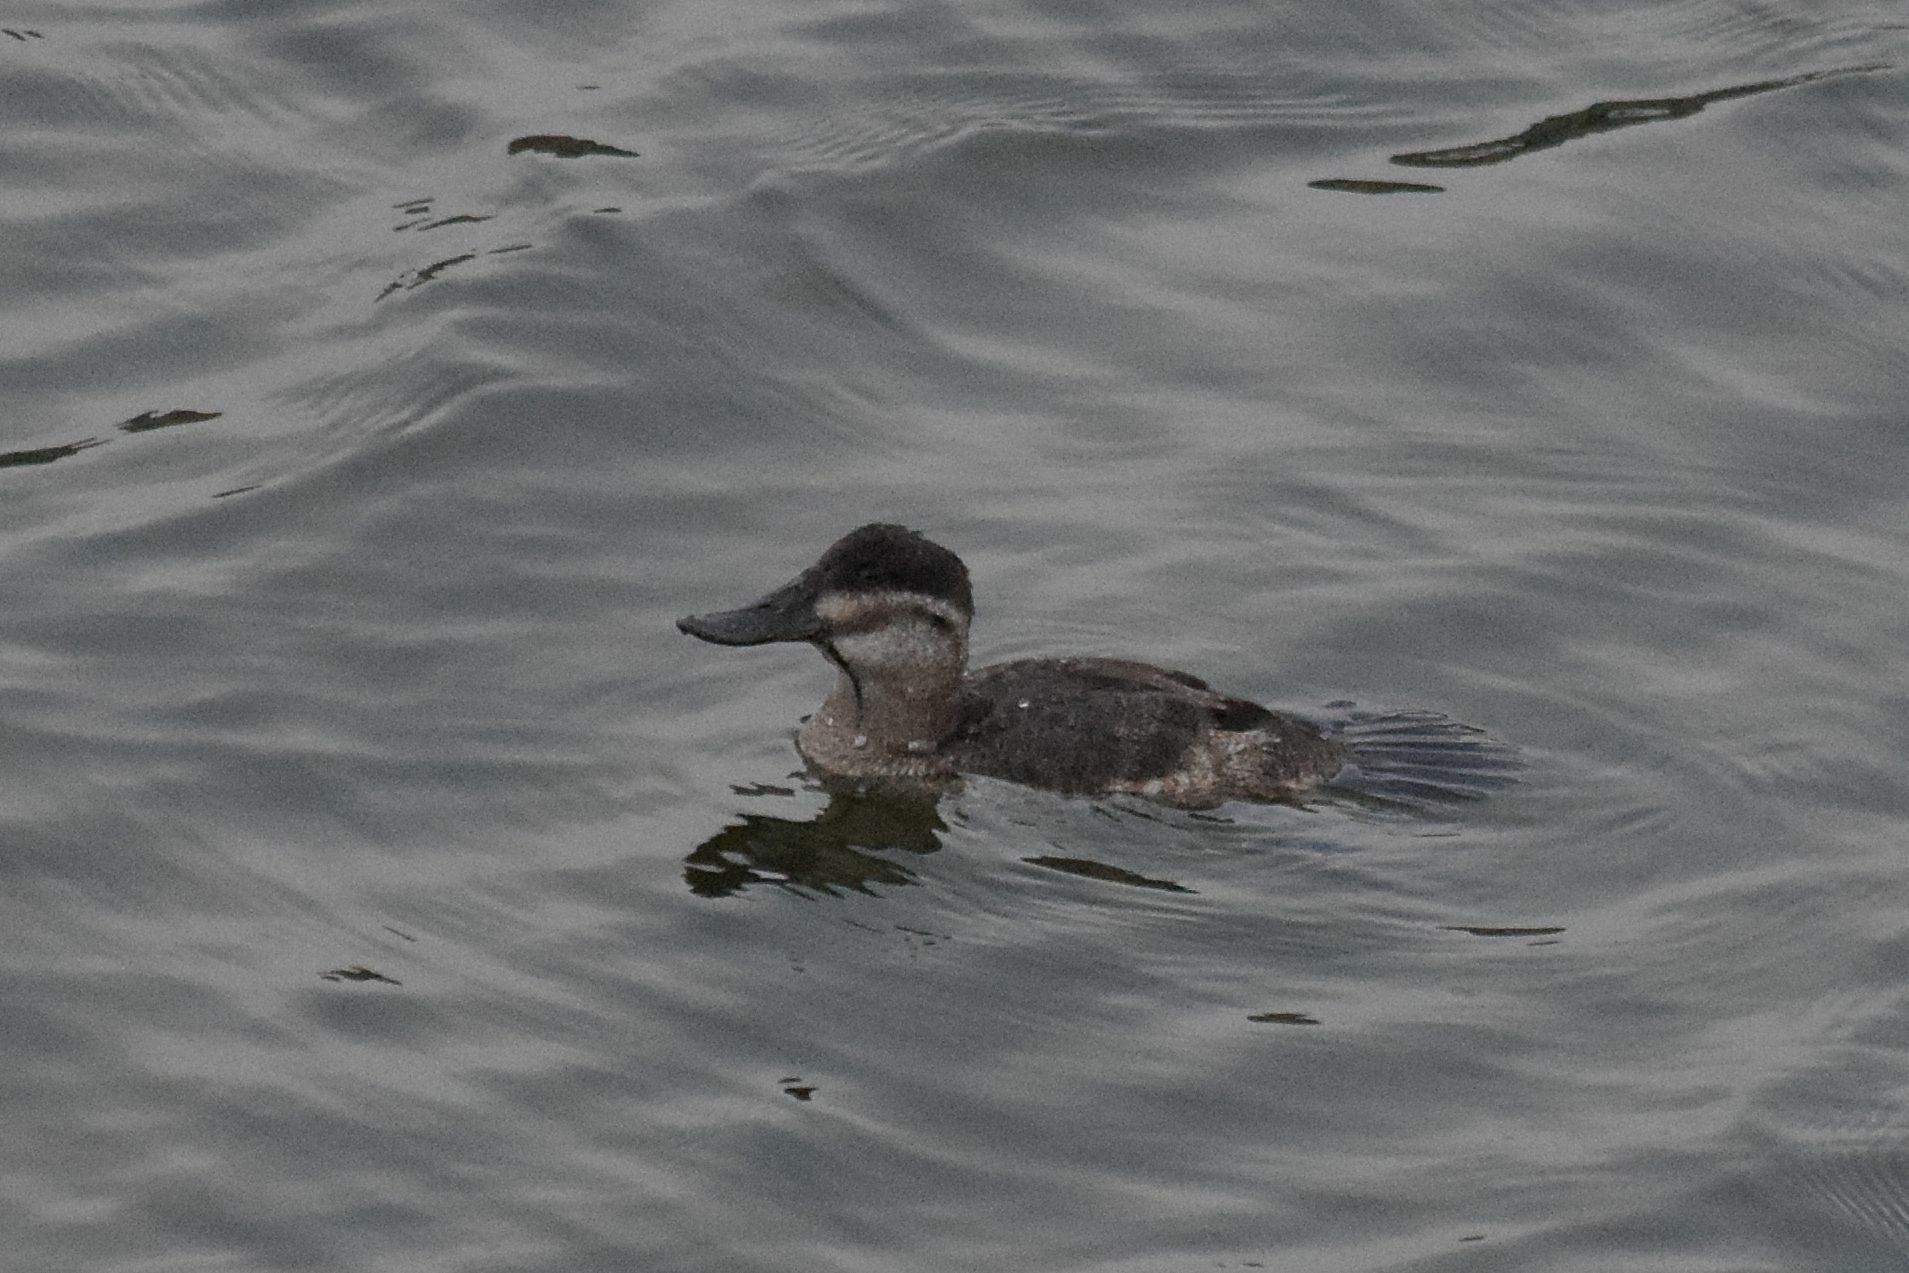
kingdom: Animalia
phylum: Chordata
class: Aves
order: Anseriformes
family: Anatidae
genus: Oxyura
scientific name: Oxyura jamaicensis
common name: Ruddy duck
